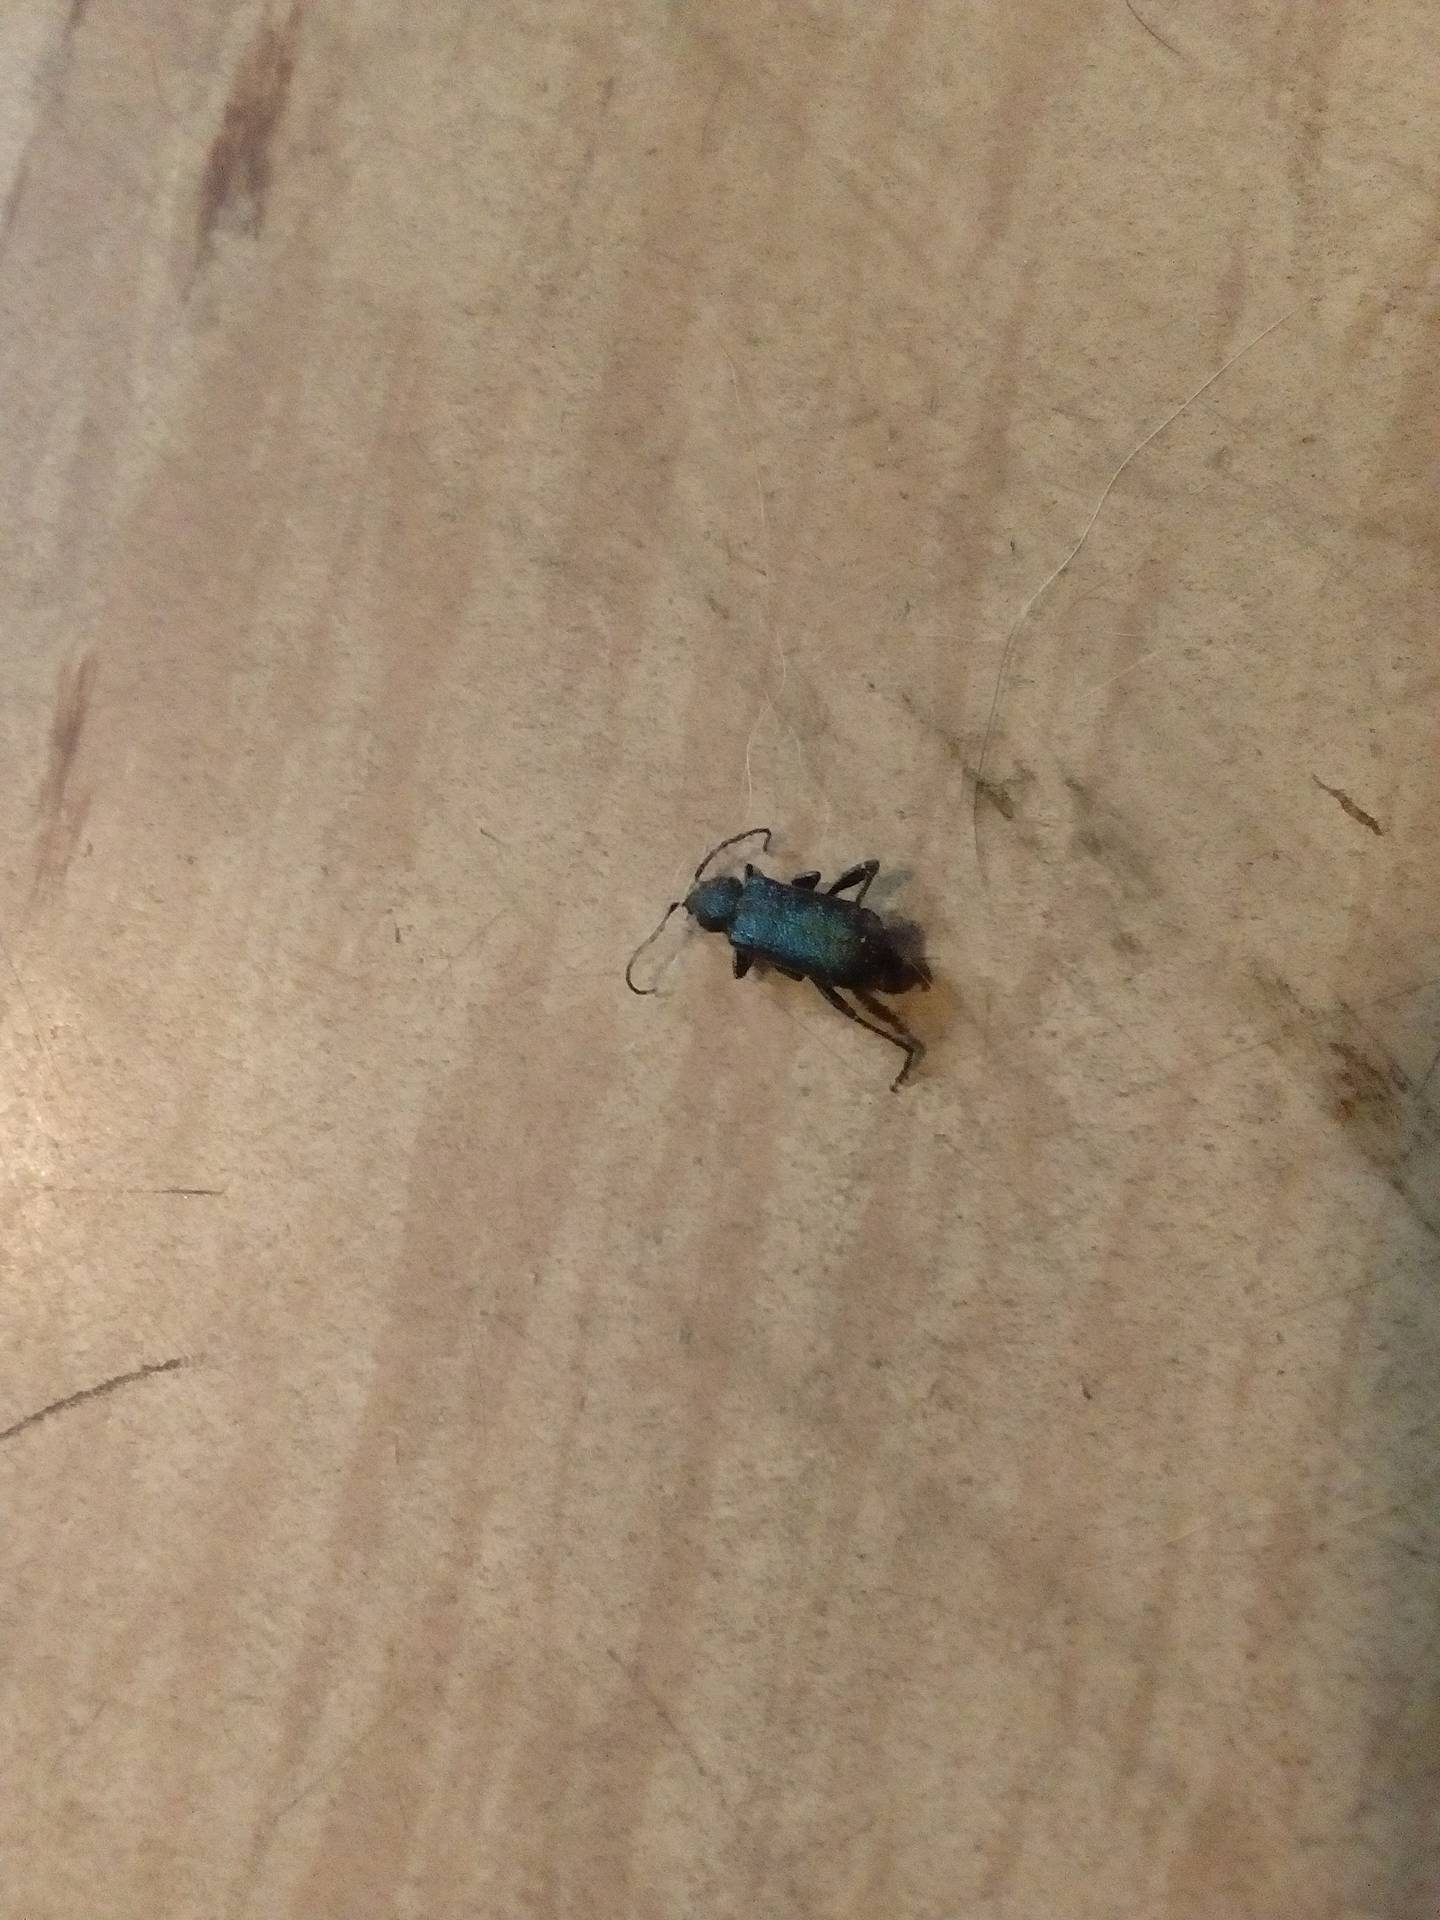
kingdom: Animalia
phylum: Arthropoda
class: Insecta
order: Coleoptera
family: Cerambycidae
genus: Callidium
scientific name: Callidium violaceum
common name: Violet tanbark beetle
